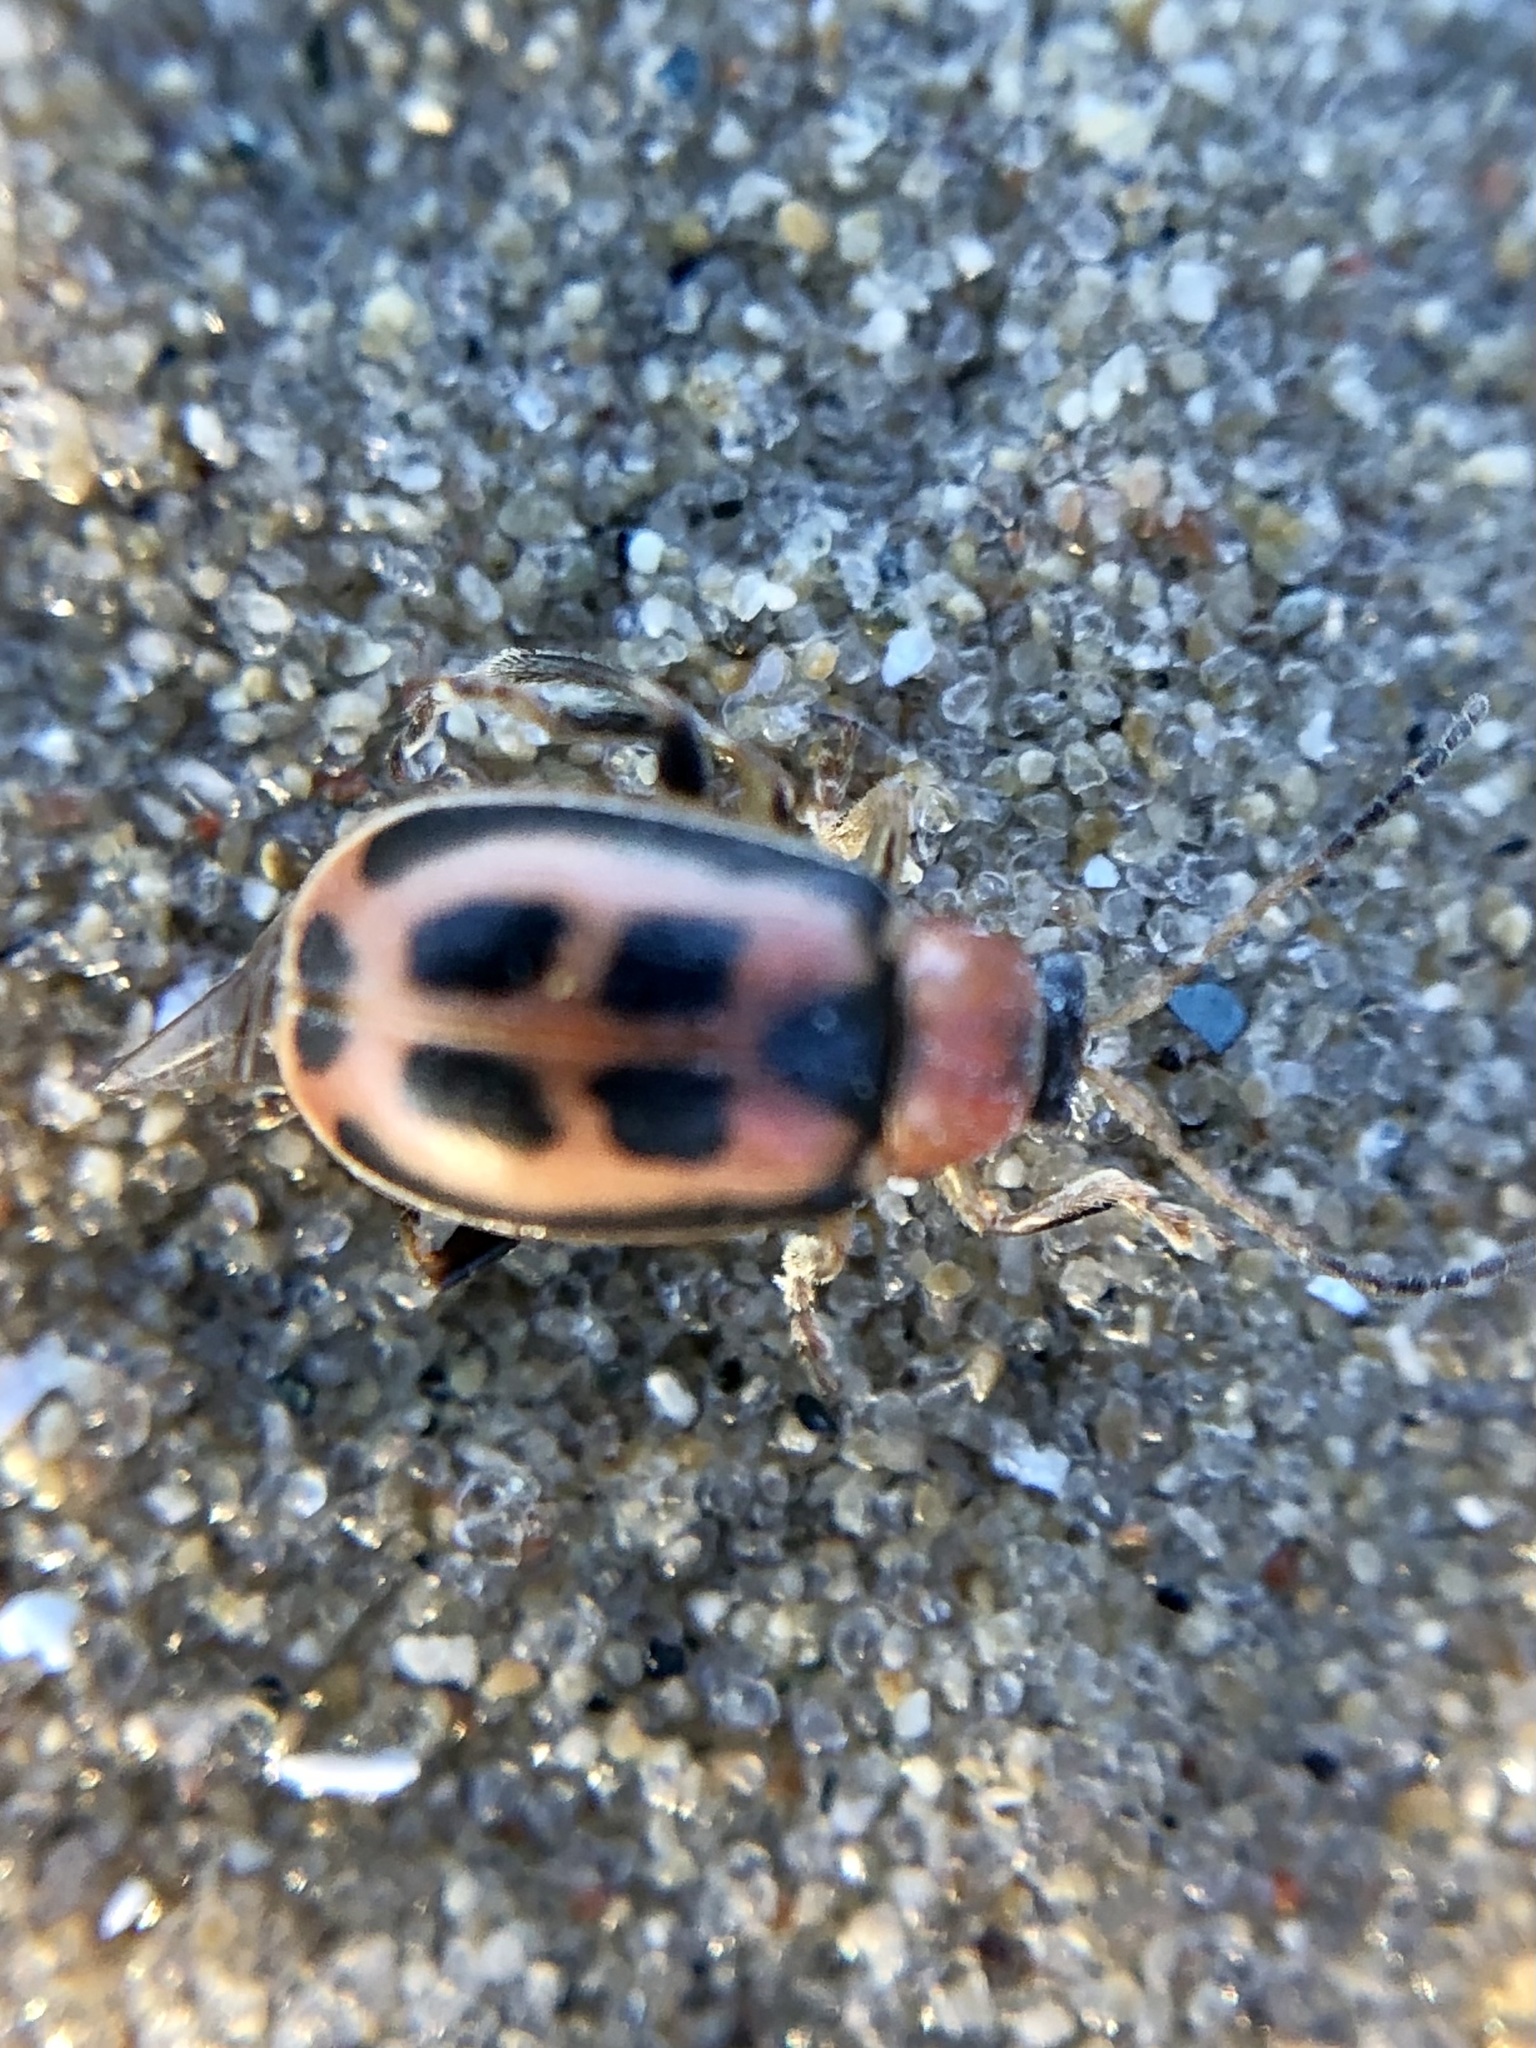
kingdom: Animalia
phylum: Arthropoda
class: Insecta
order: Coleoptera
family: Chrysomelidae
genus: Cerotoma
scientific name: Cerotoma trifurcata
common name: Bean leaf beetle
